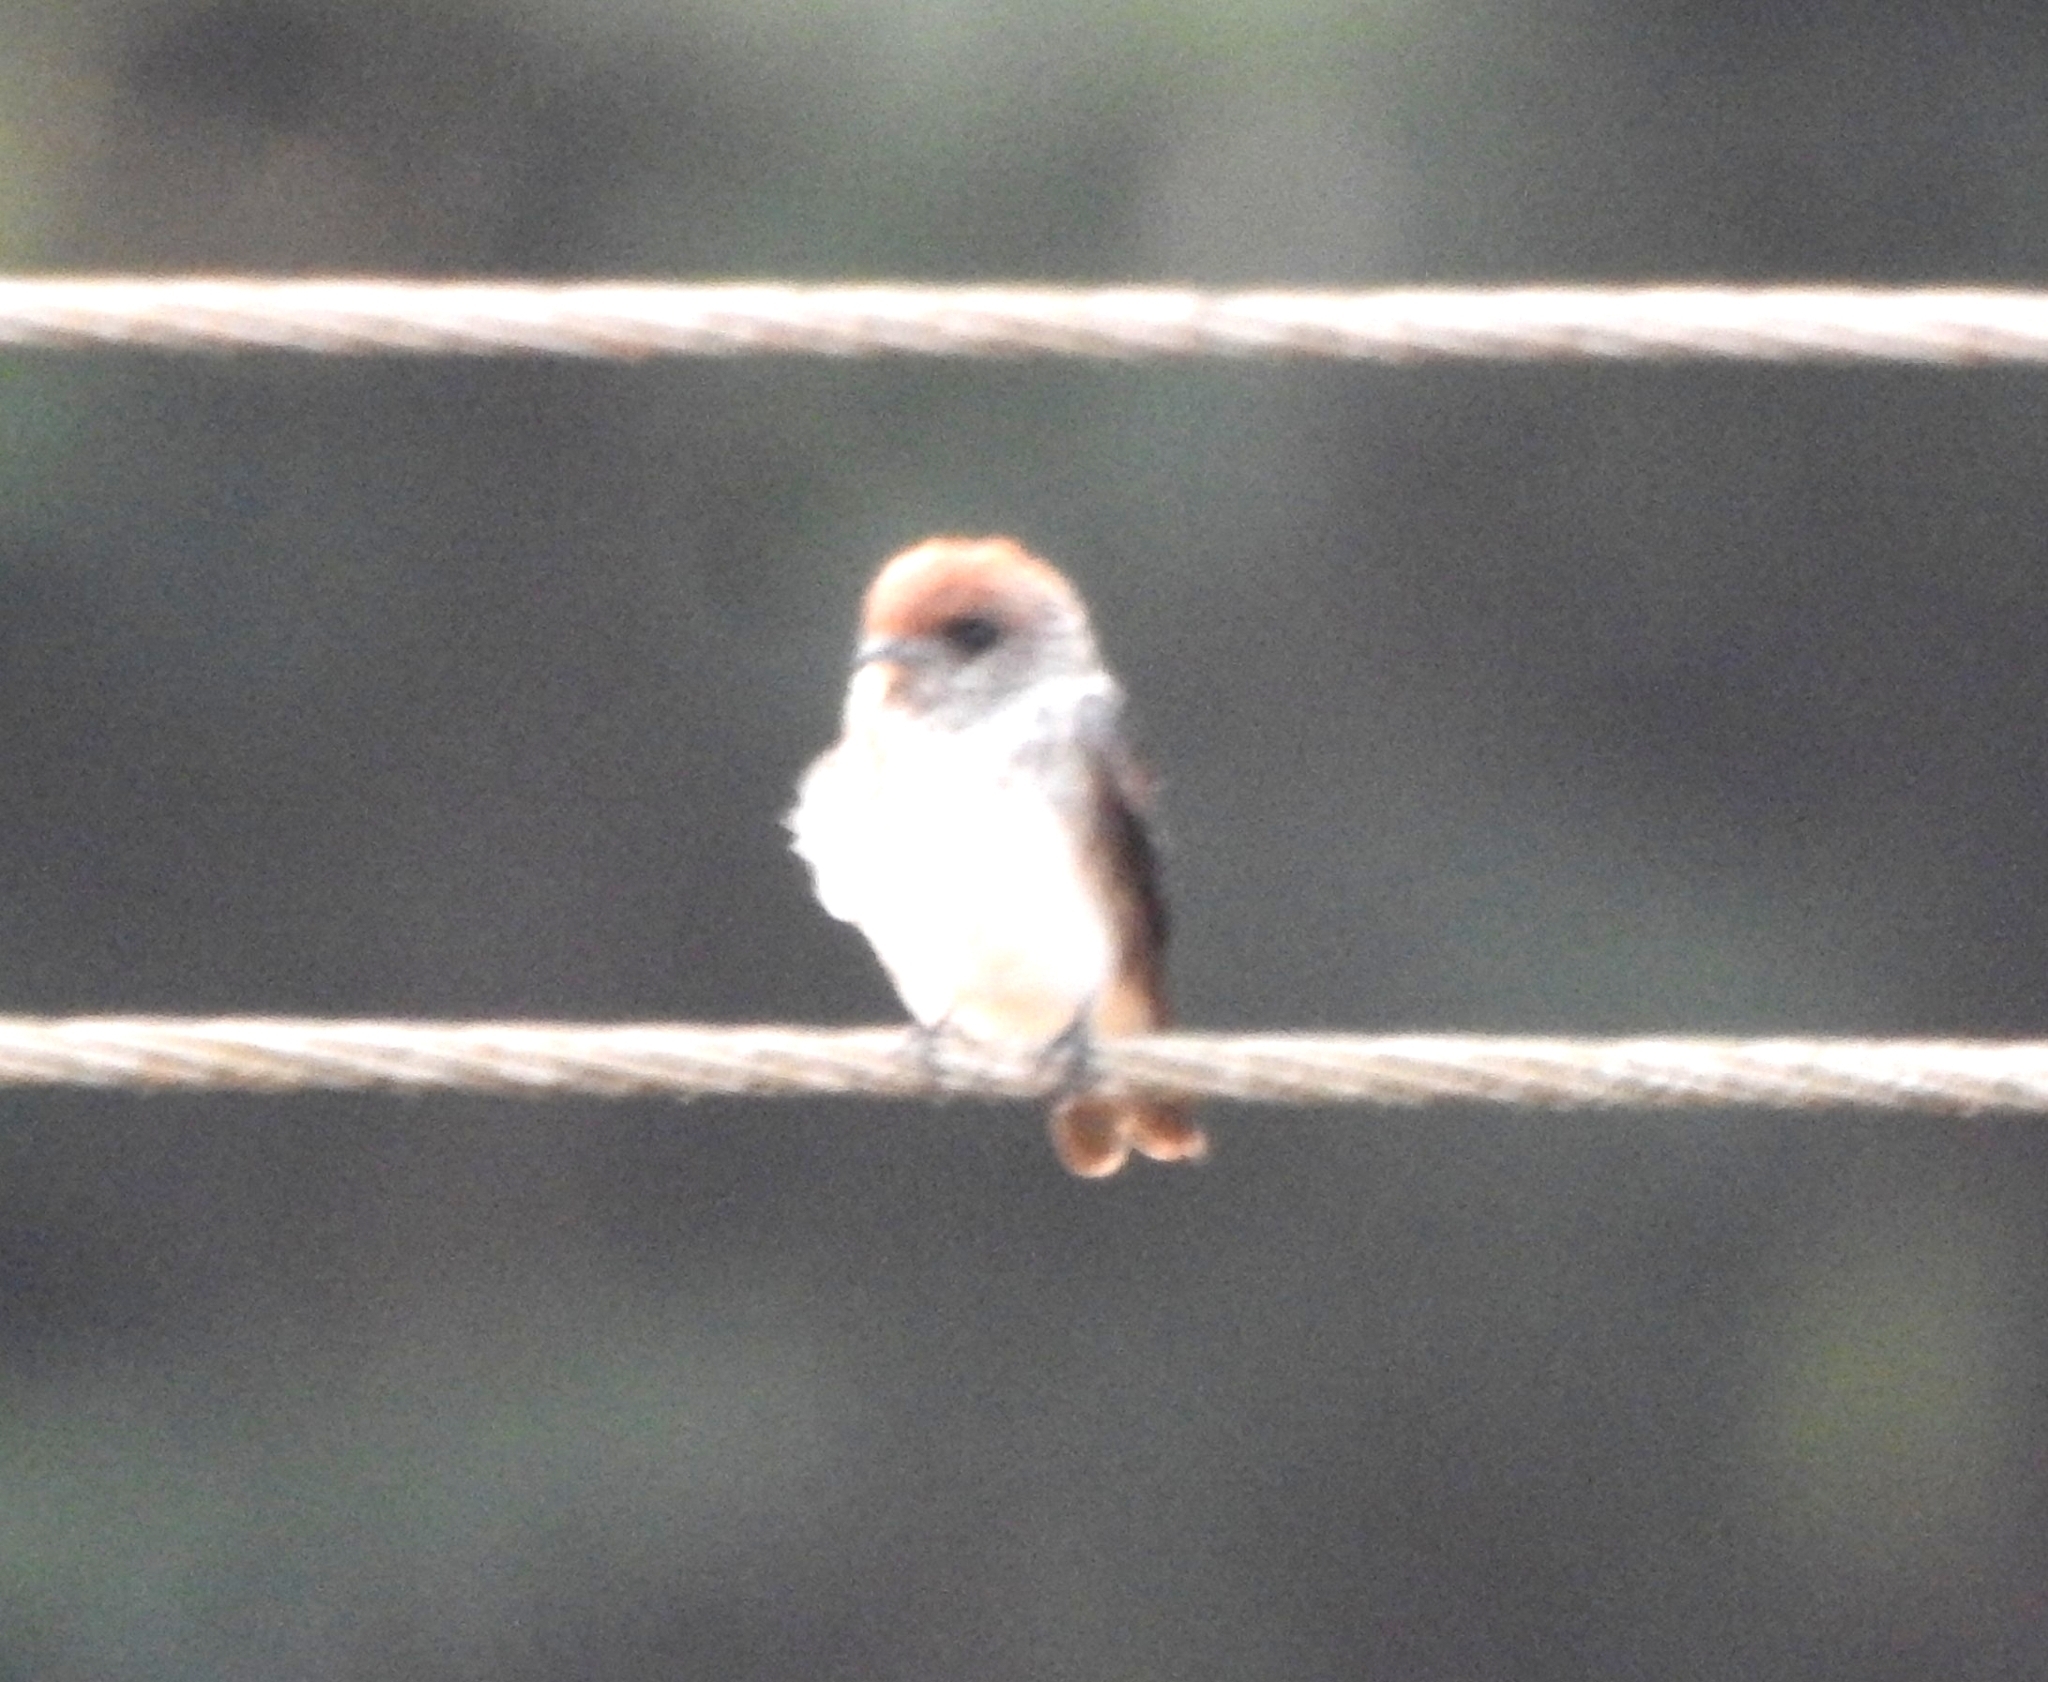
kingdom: Animalia
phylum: Chordata
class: Aves
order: Passeriformes
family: Hirundinidae
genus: Petrochelidon
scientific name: Petrochelidon fluvicola
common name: Streak-throated swallow
